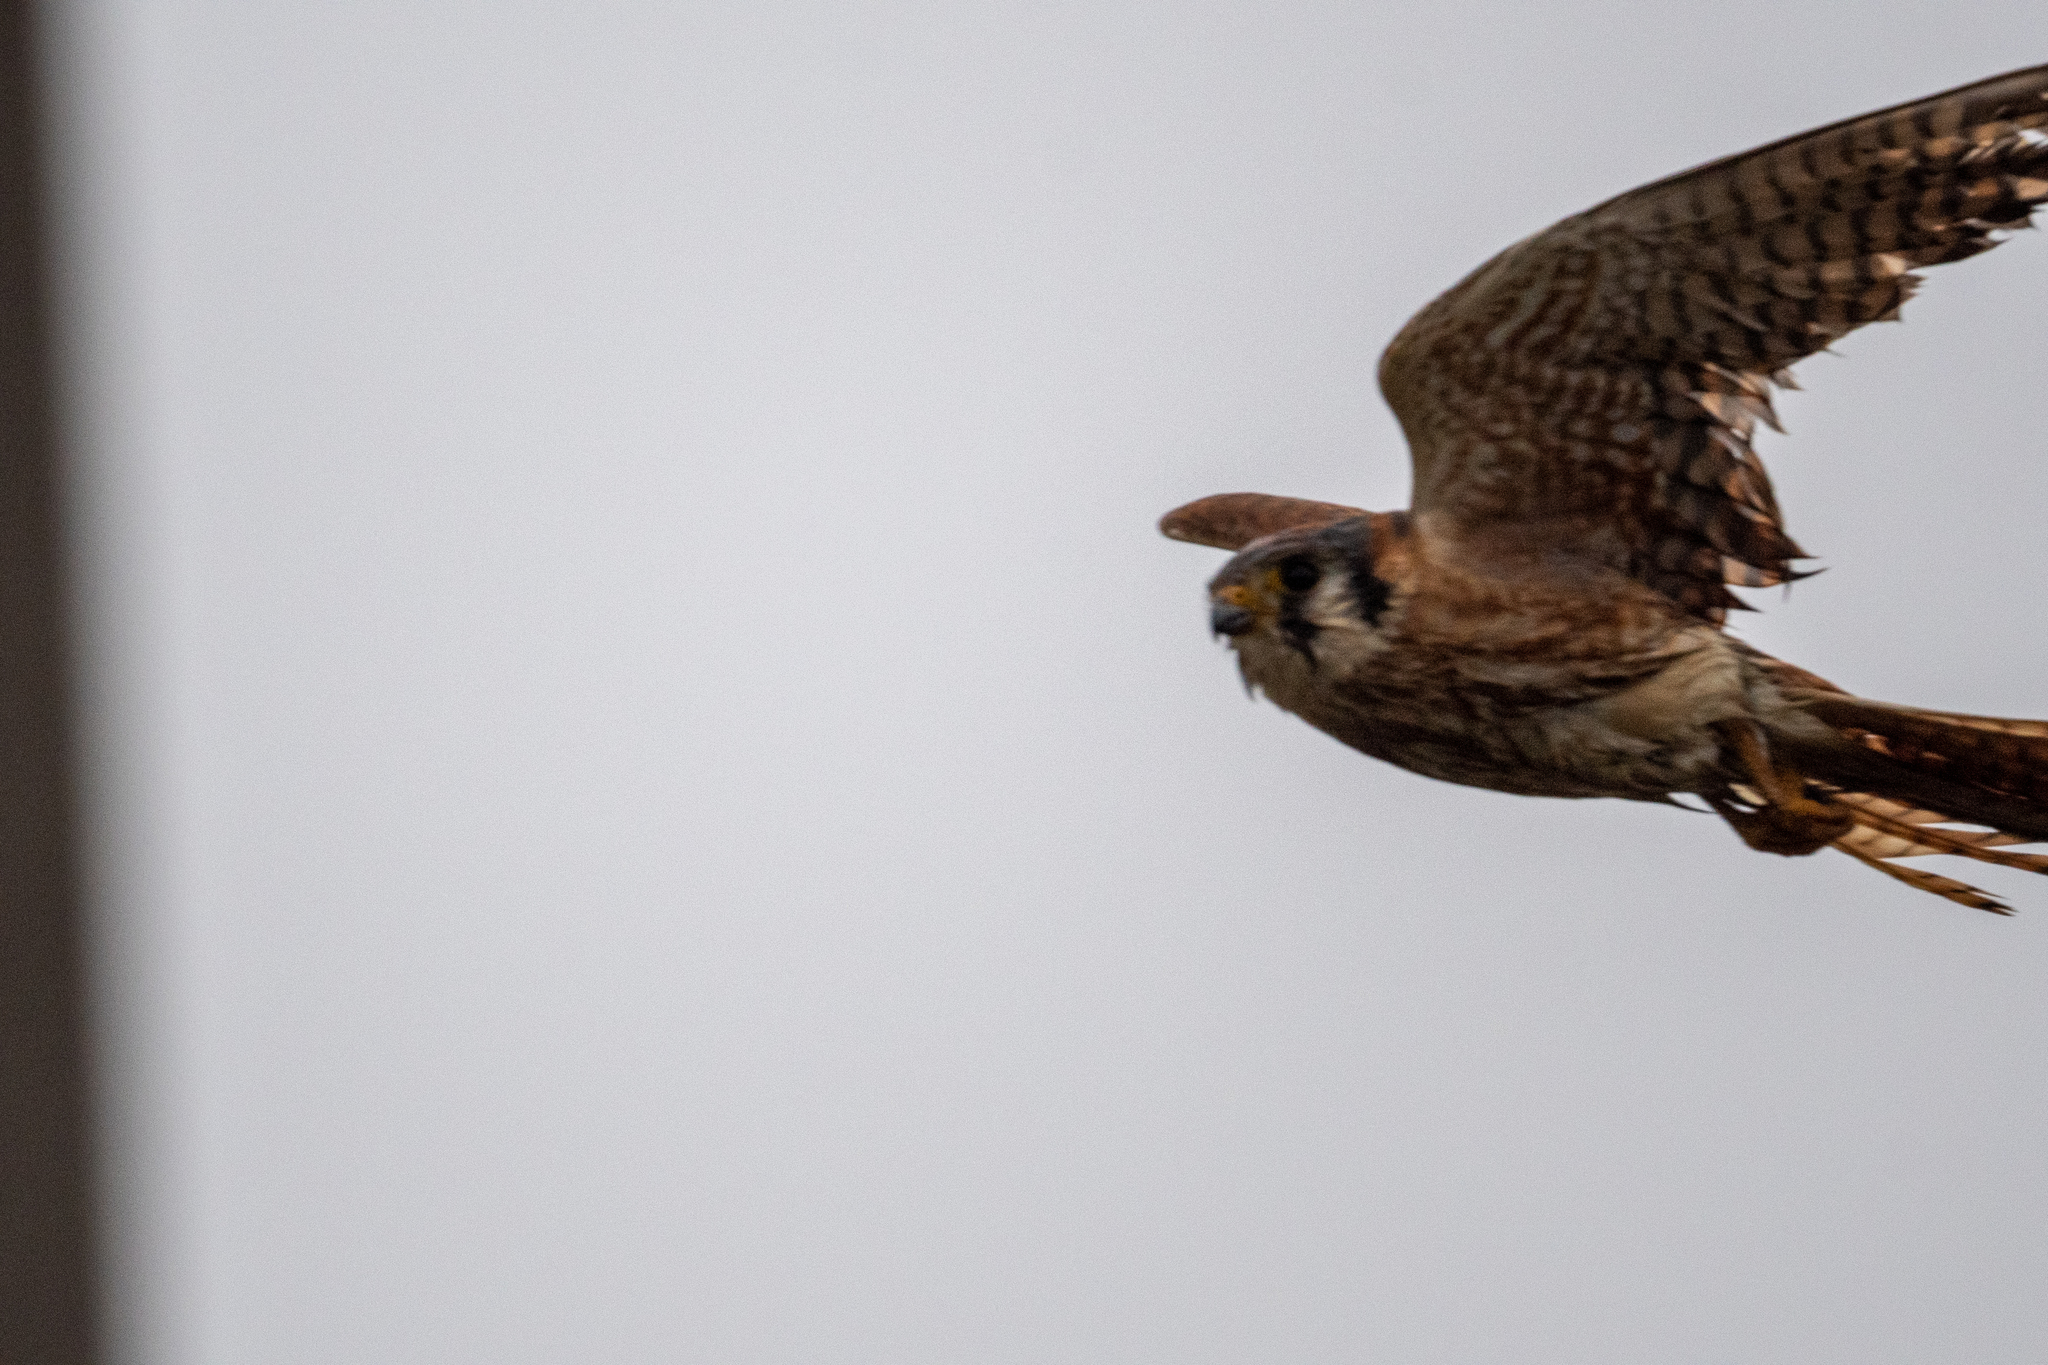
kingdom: Animalia
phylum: Chordata
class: Aves
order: Falconiformes
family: Falconidae
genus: Falco
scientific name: Falco sparverius
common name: American kestrel
